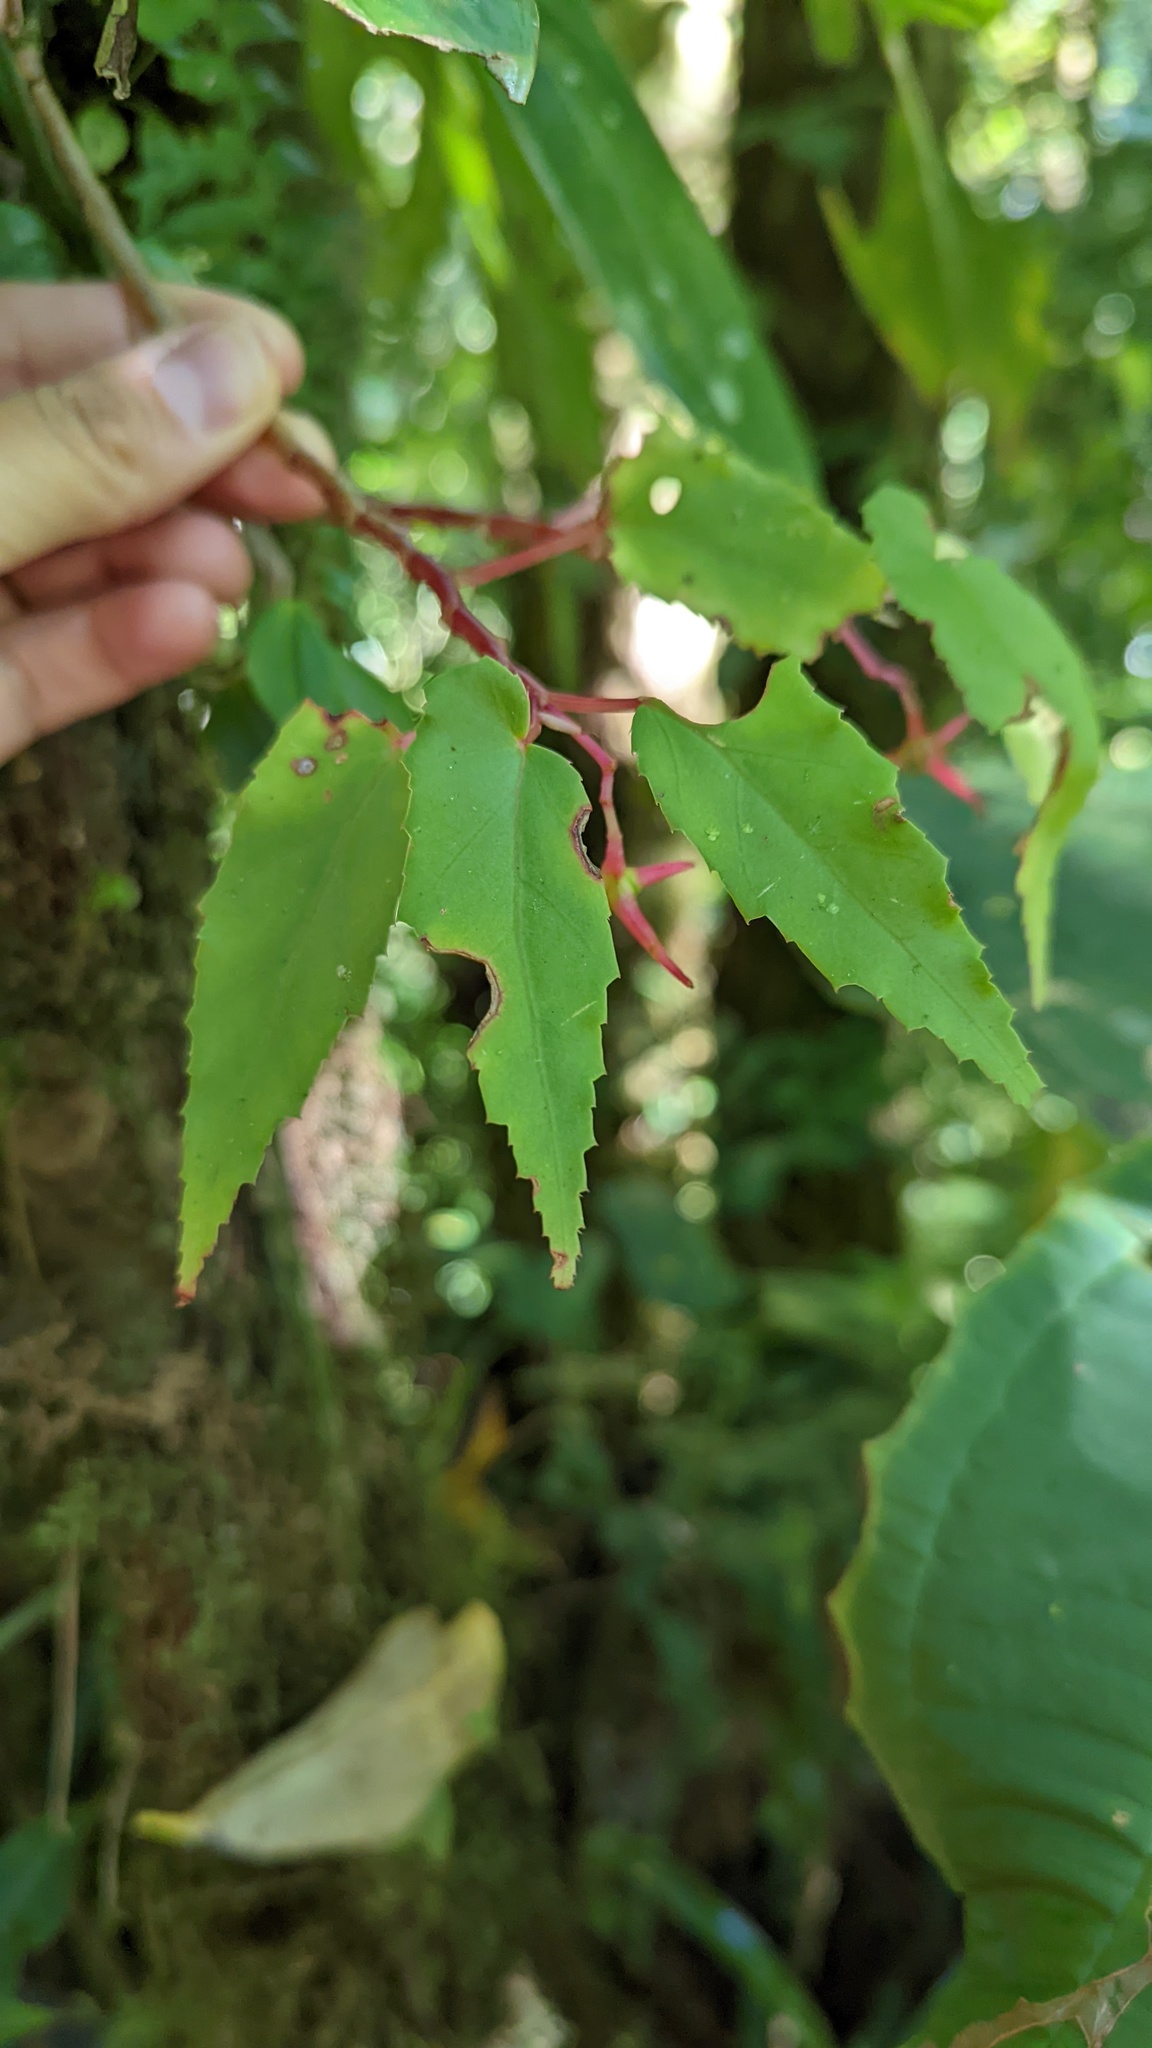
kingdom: Plantae
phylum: Tracheophyta
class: Magnoliopsida
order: Cucurbitales
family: Begoniaceae
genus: Begonia
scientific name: Begonia heydei
